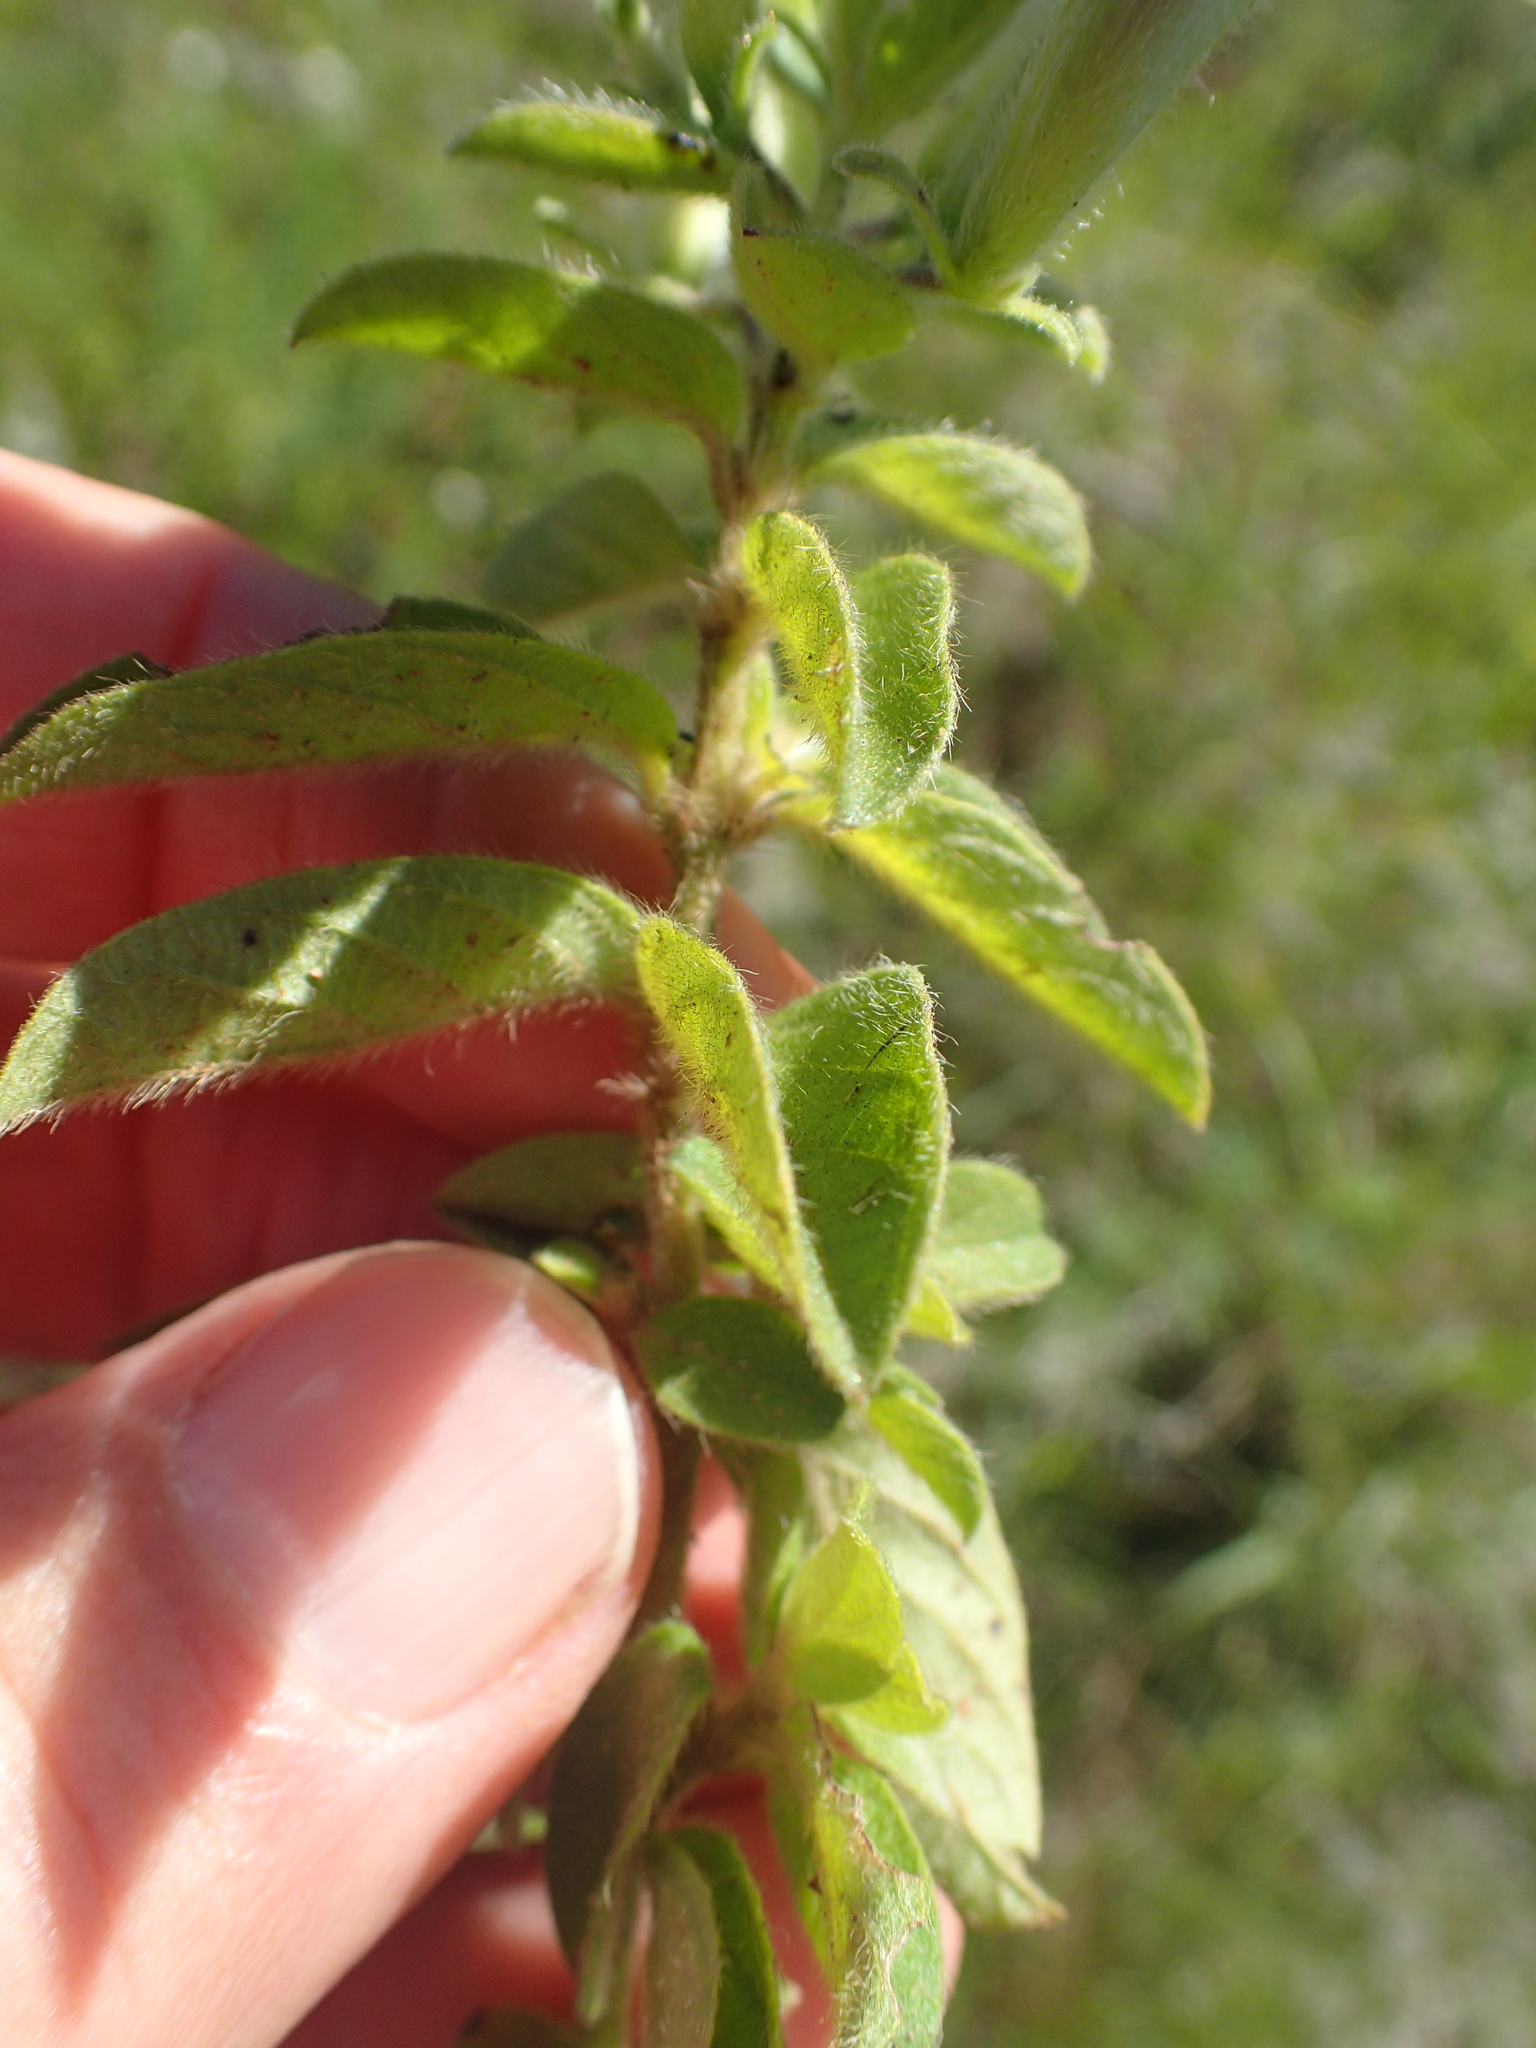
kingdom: Plantae
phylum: Tracheophyta
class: Magnoliopsida
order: Lamiales
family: Acanthaceae
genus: Barleria
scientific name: Barleria obtusa
